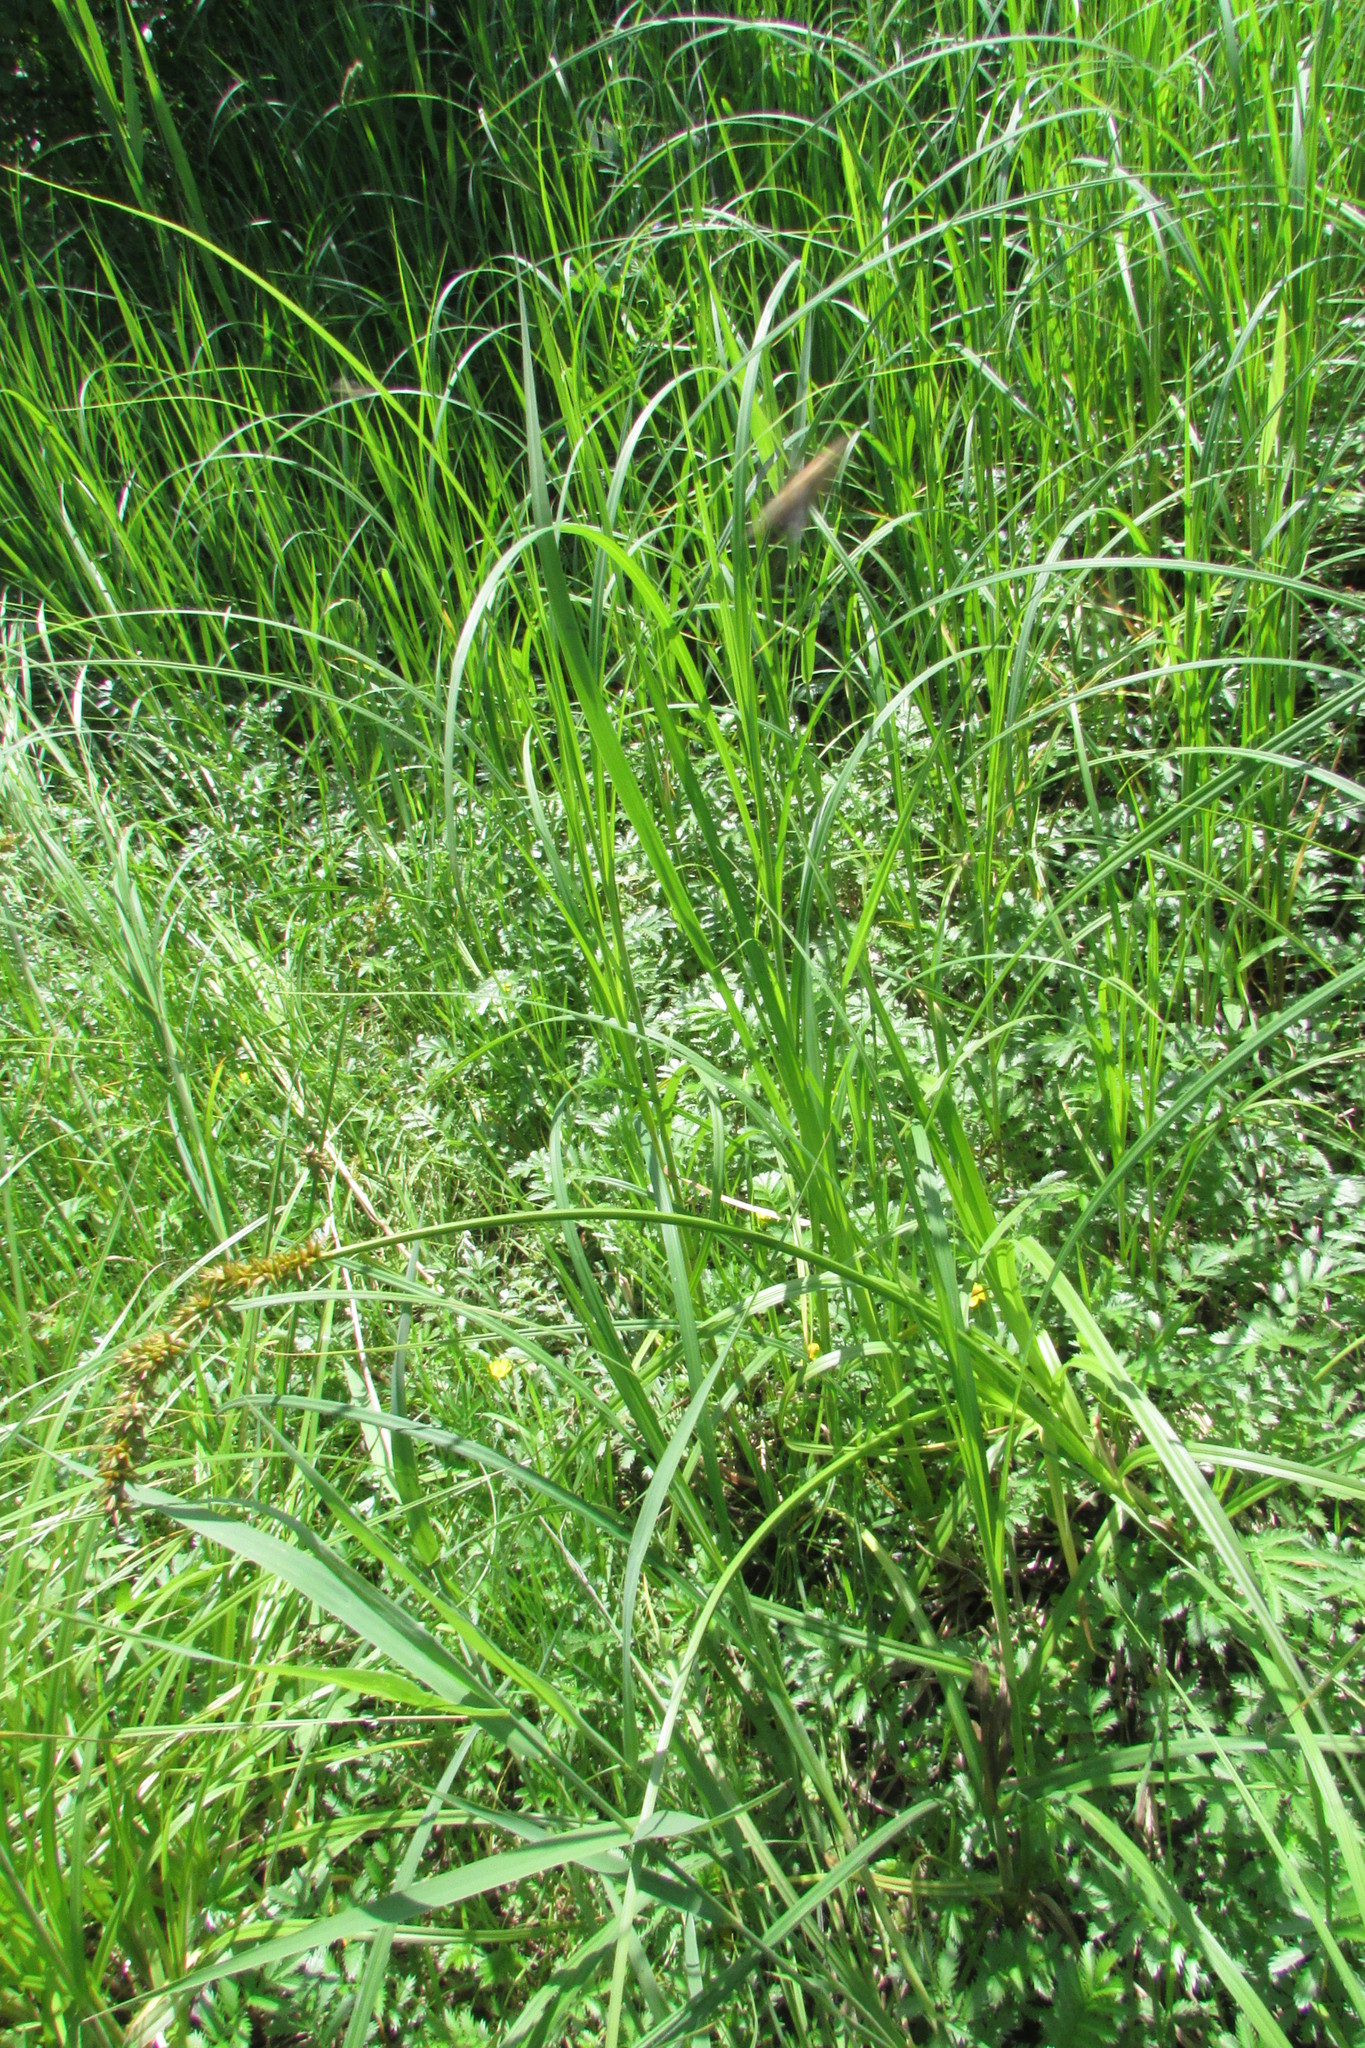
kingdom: Plantae
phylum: Tracheophyta
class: Liliopsida
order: Poales
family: Cyperaceae
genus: Carex
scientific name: Carex vulpina
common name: True fox-sedge
